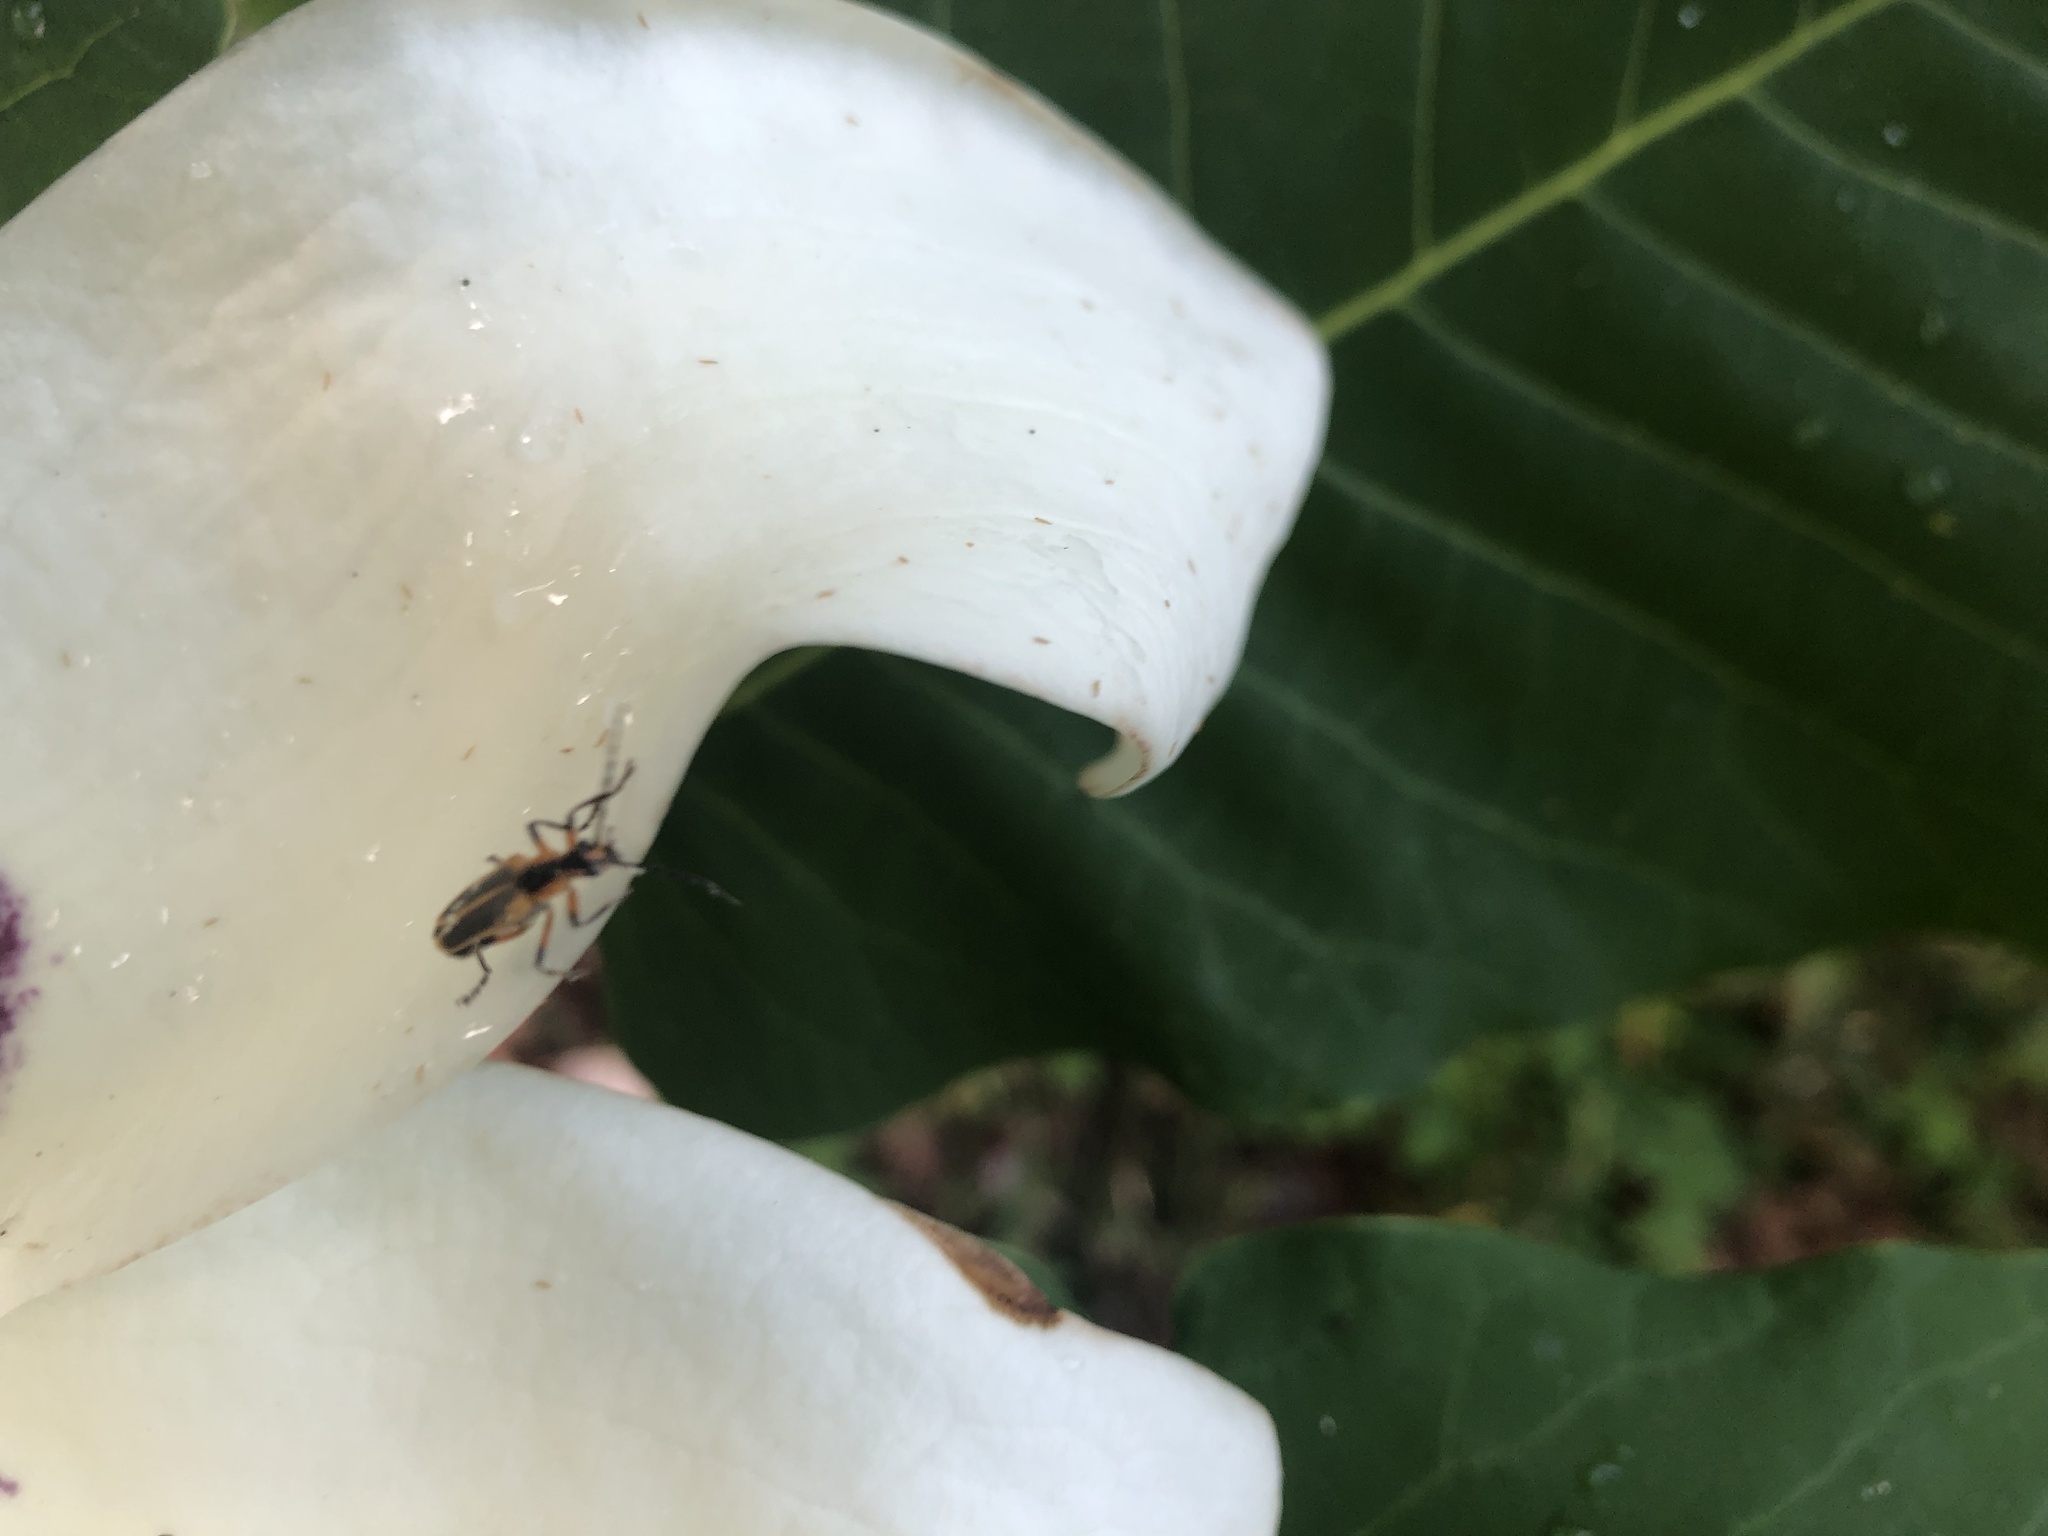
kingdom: Animalia
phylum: Arthropoda
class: Insecta
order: Coleoptera
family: Cantharidae
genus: Chauliognathus
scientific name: Chauliognathus marginatus
